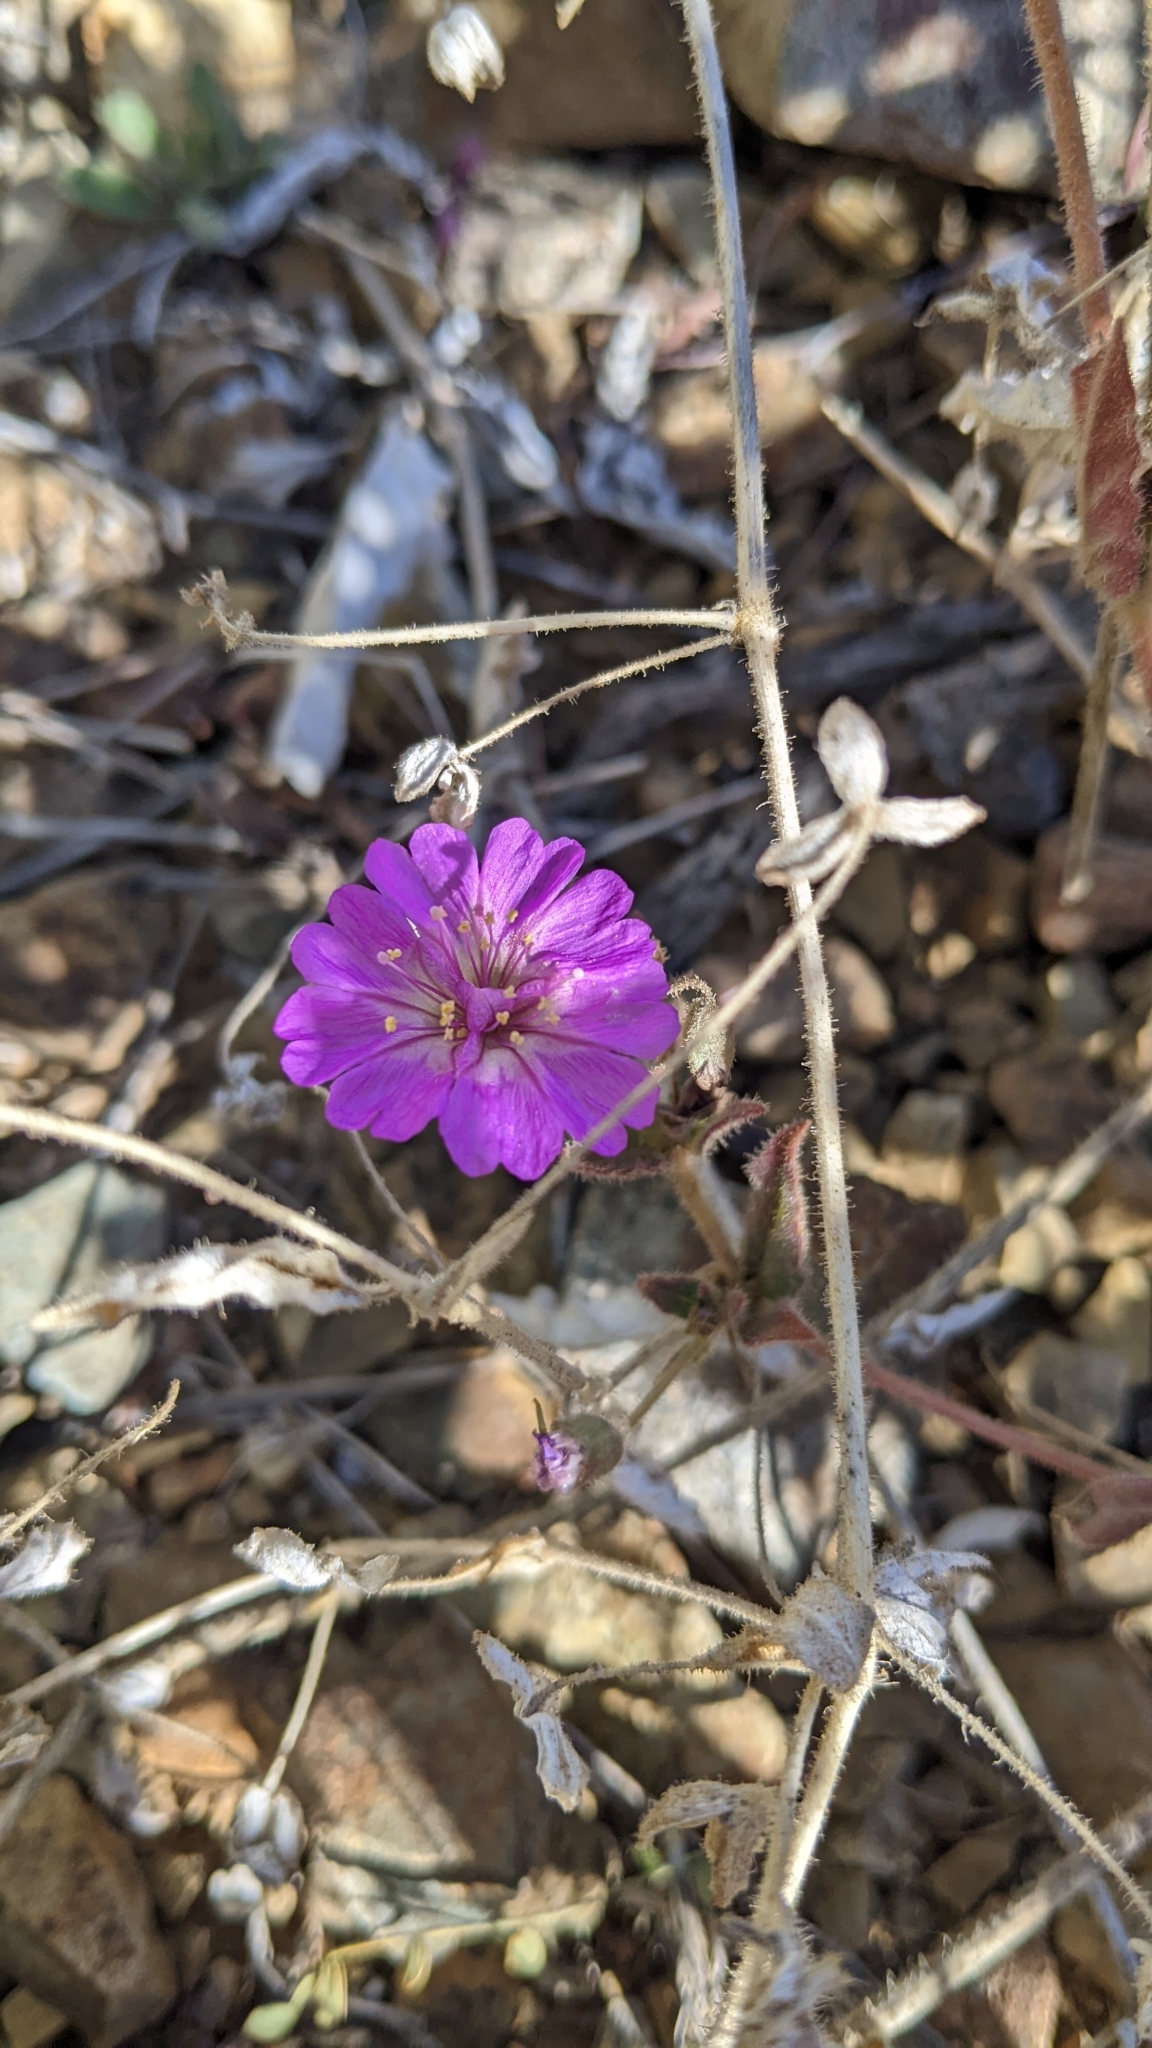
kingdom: Plantae
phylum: Tracheophyta
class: Magnoliopsida
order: Caryophyllales
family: Nyctaginaceae
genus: Allionia
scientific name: Allionia incarnata
